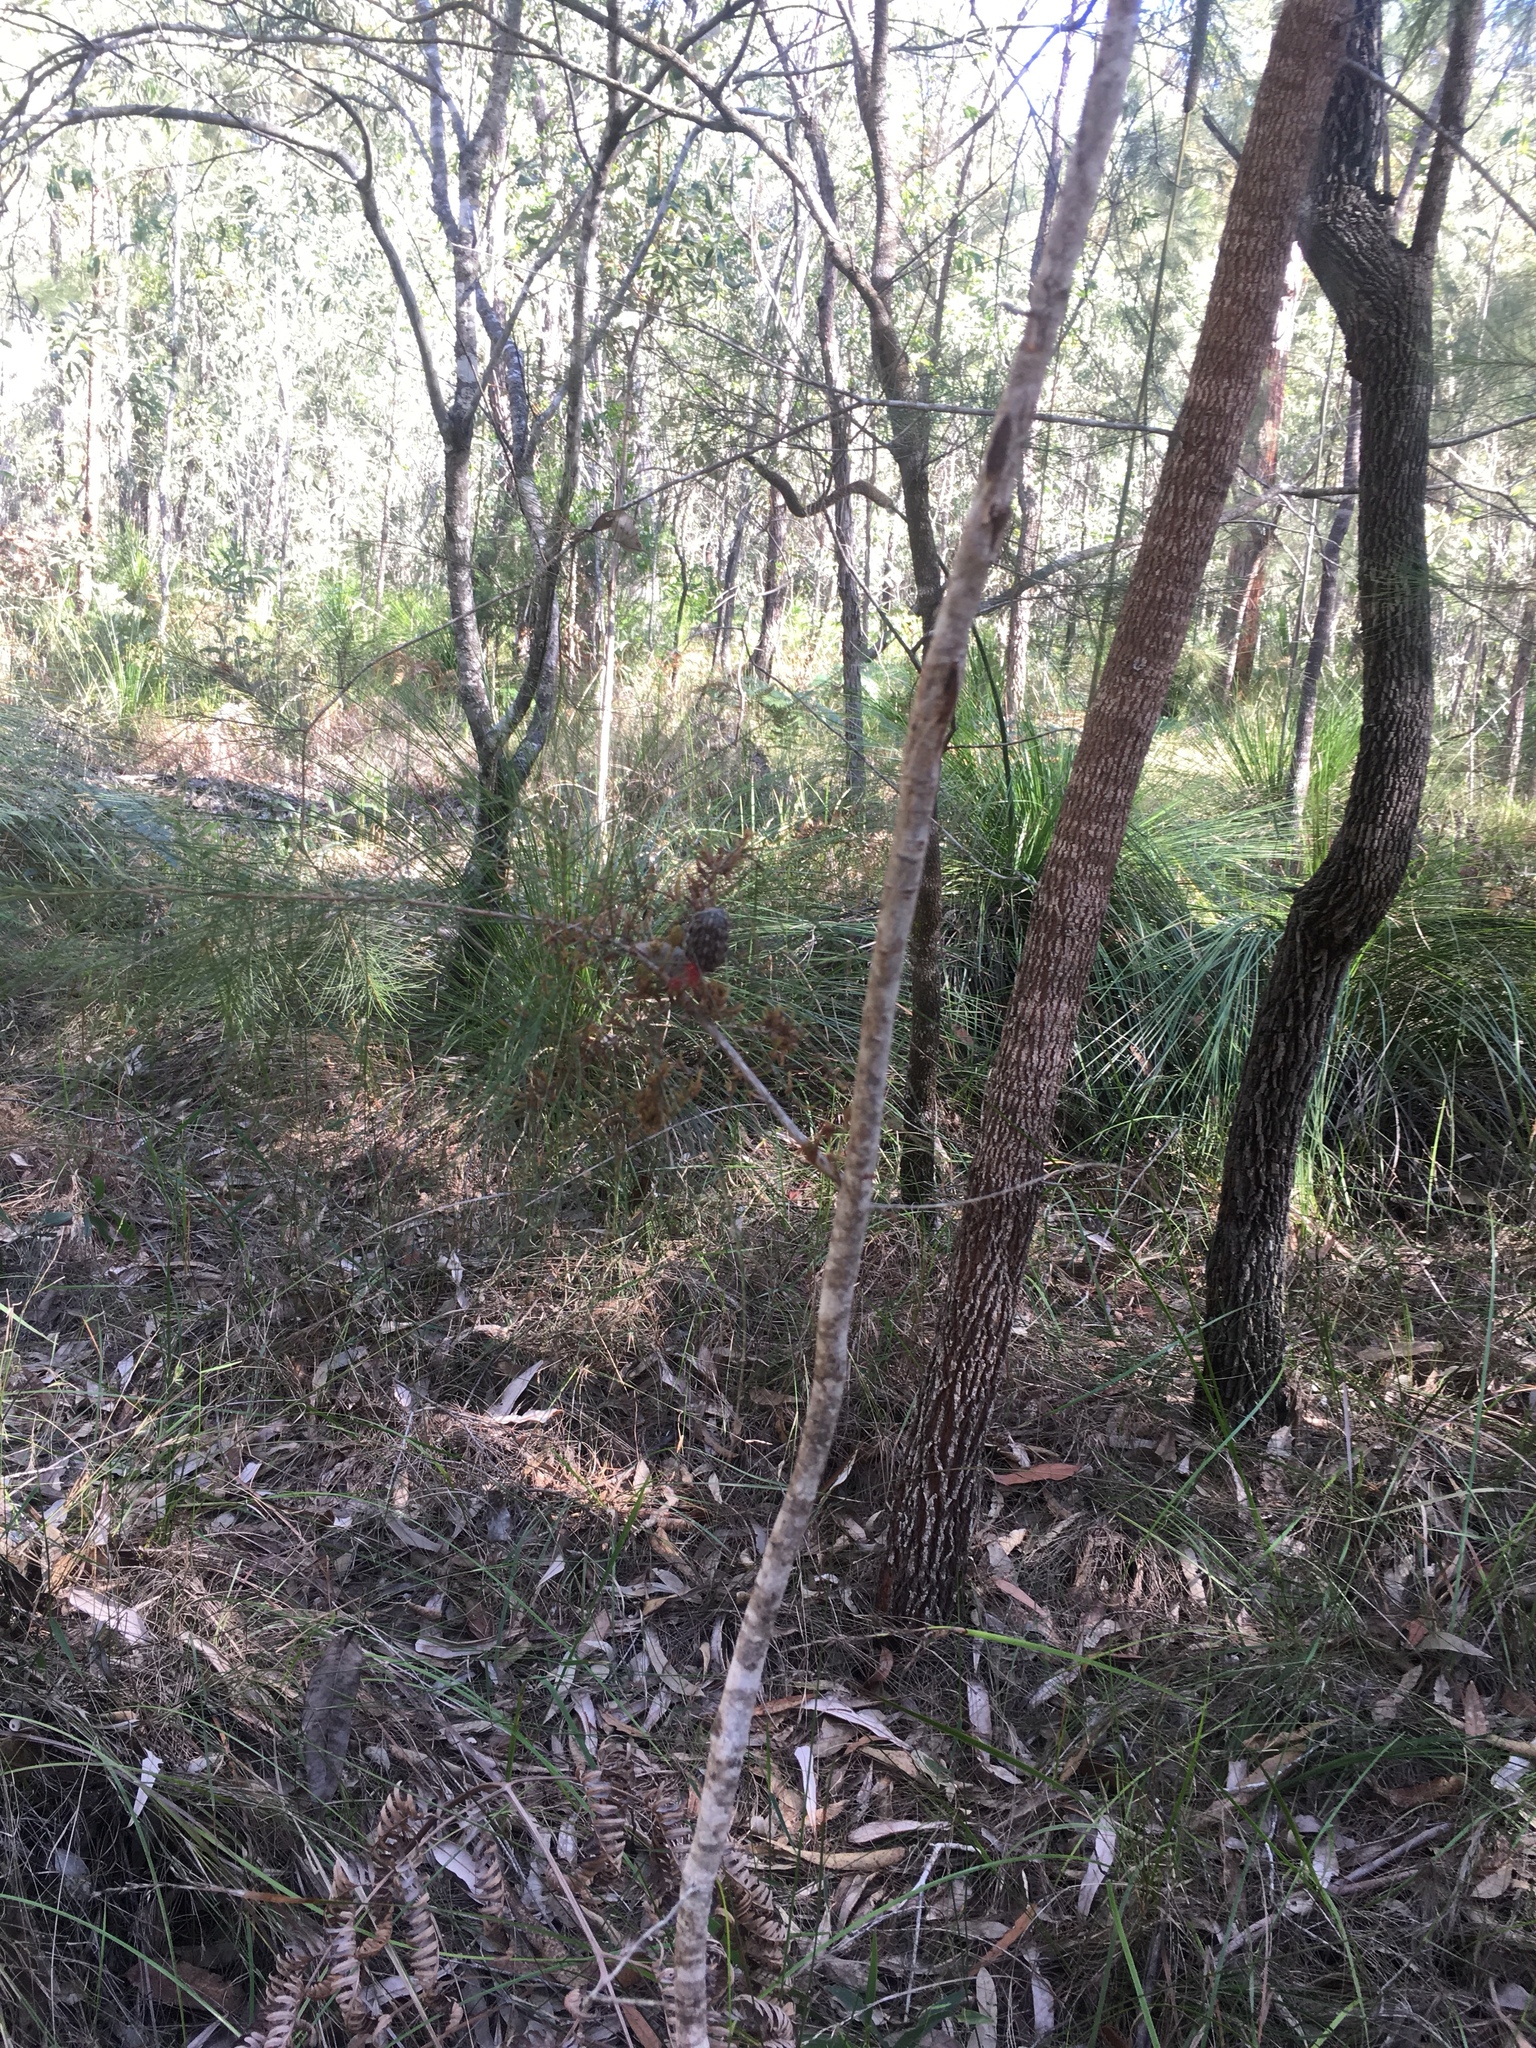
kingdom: Plantae
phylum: Tracheophyta
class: Magnoliopsida
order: Fagales
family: Casuarinaceae
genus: Allocasuarina
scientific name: Allocasuarina littoralis
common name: Black she-oak
